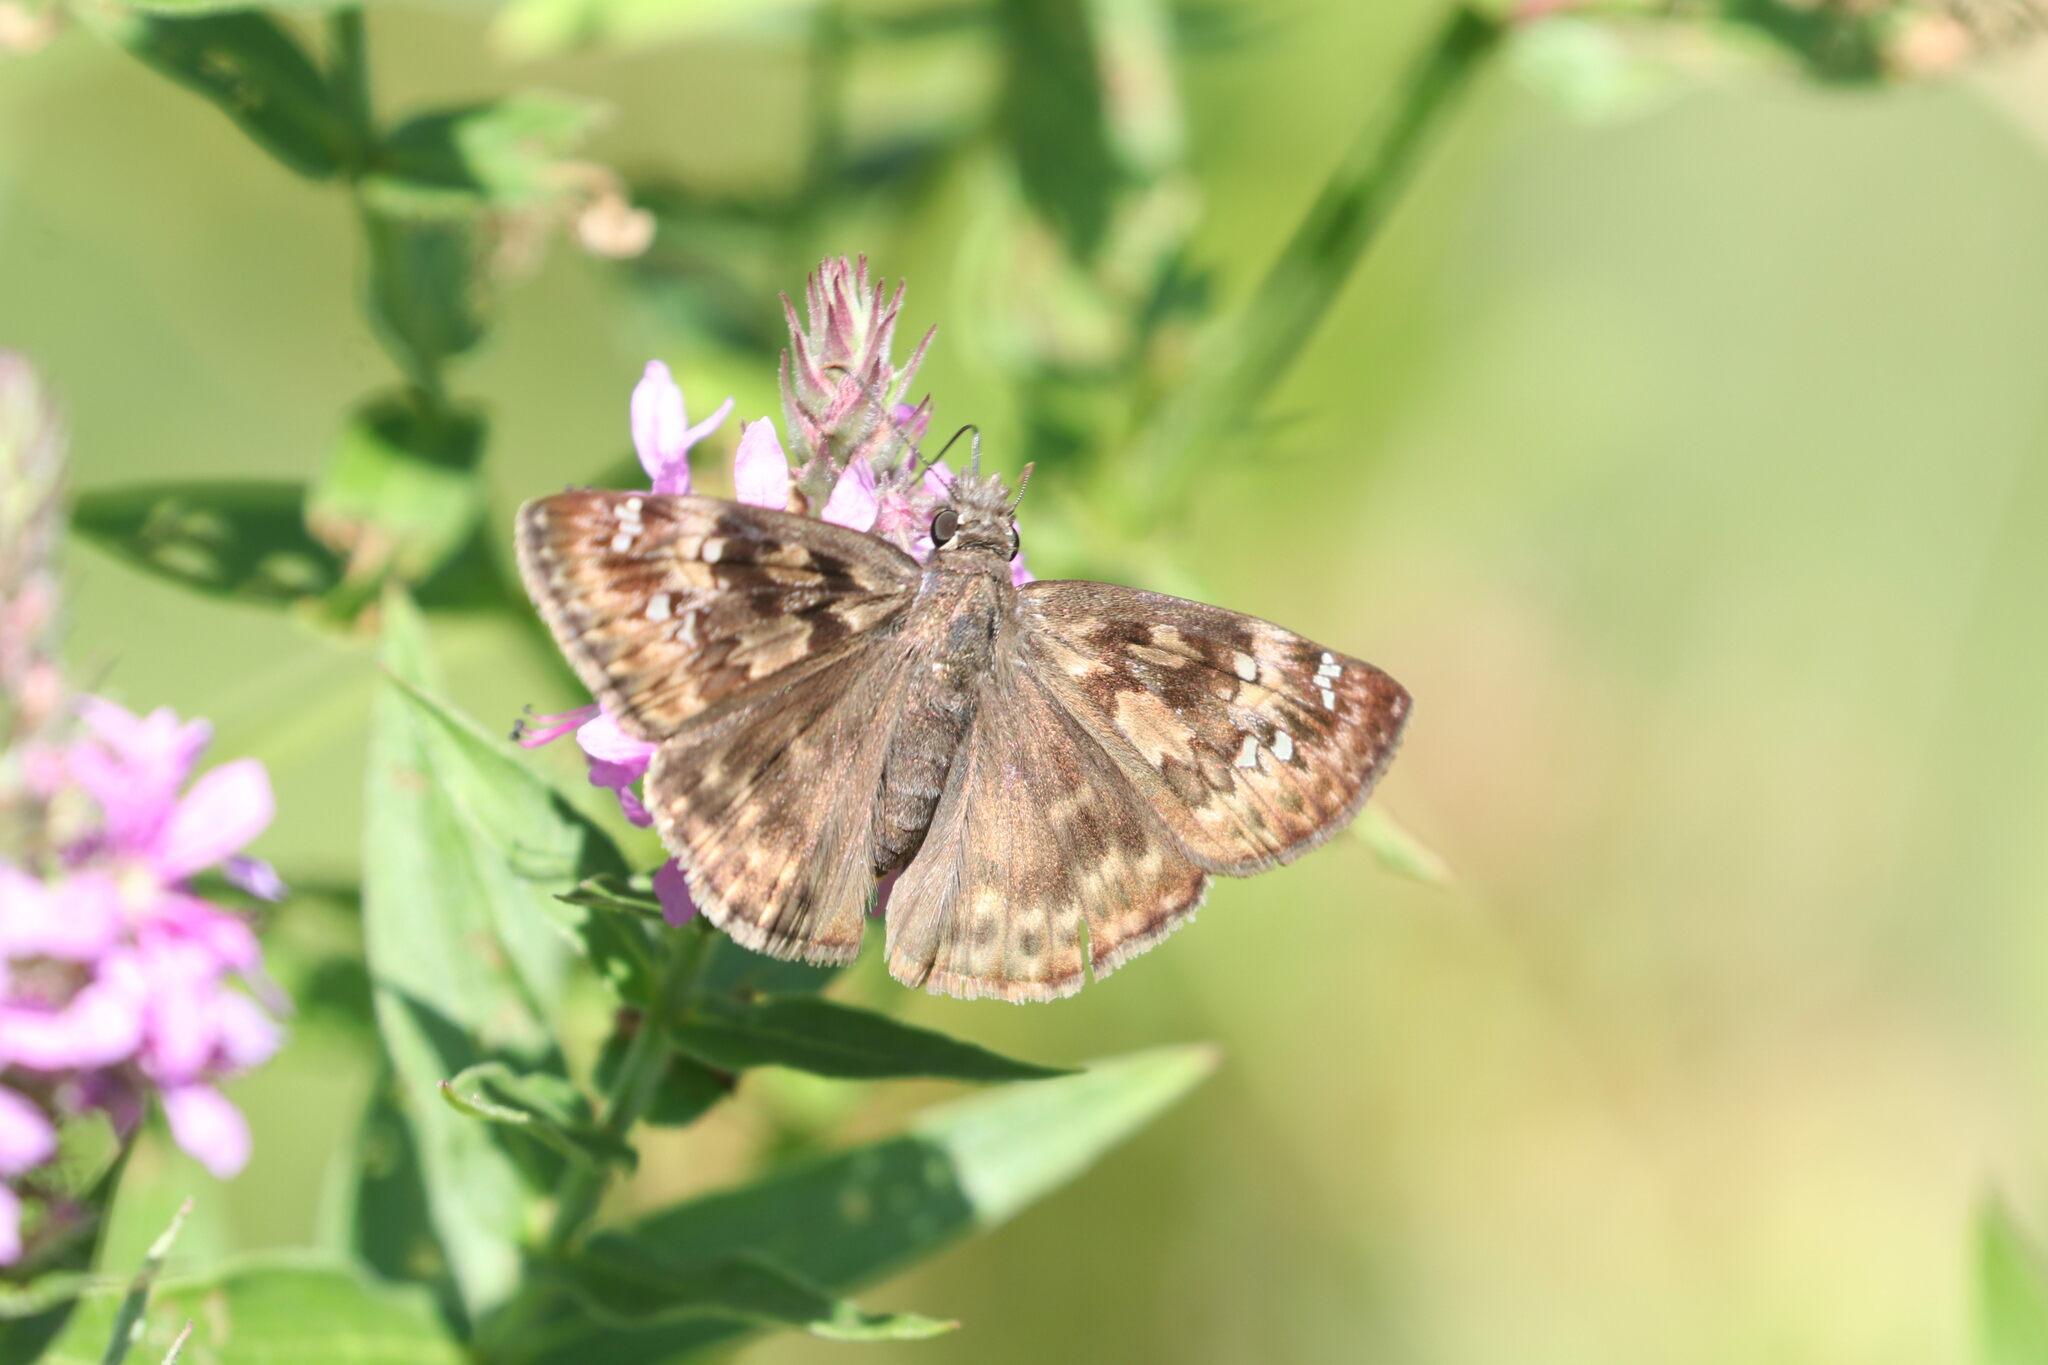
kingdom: Animalia
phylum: Arthropoda
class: Insecta
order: Lepidoptera
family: Hesperiidae
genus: Erynnis
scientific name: Erynnis horatius
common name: Horace's duskywing
